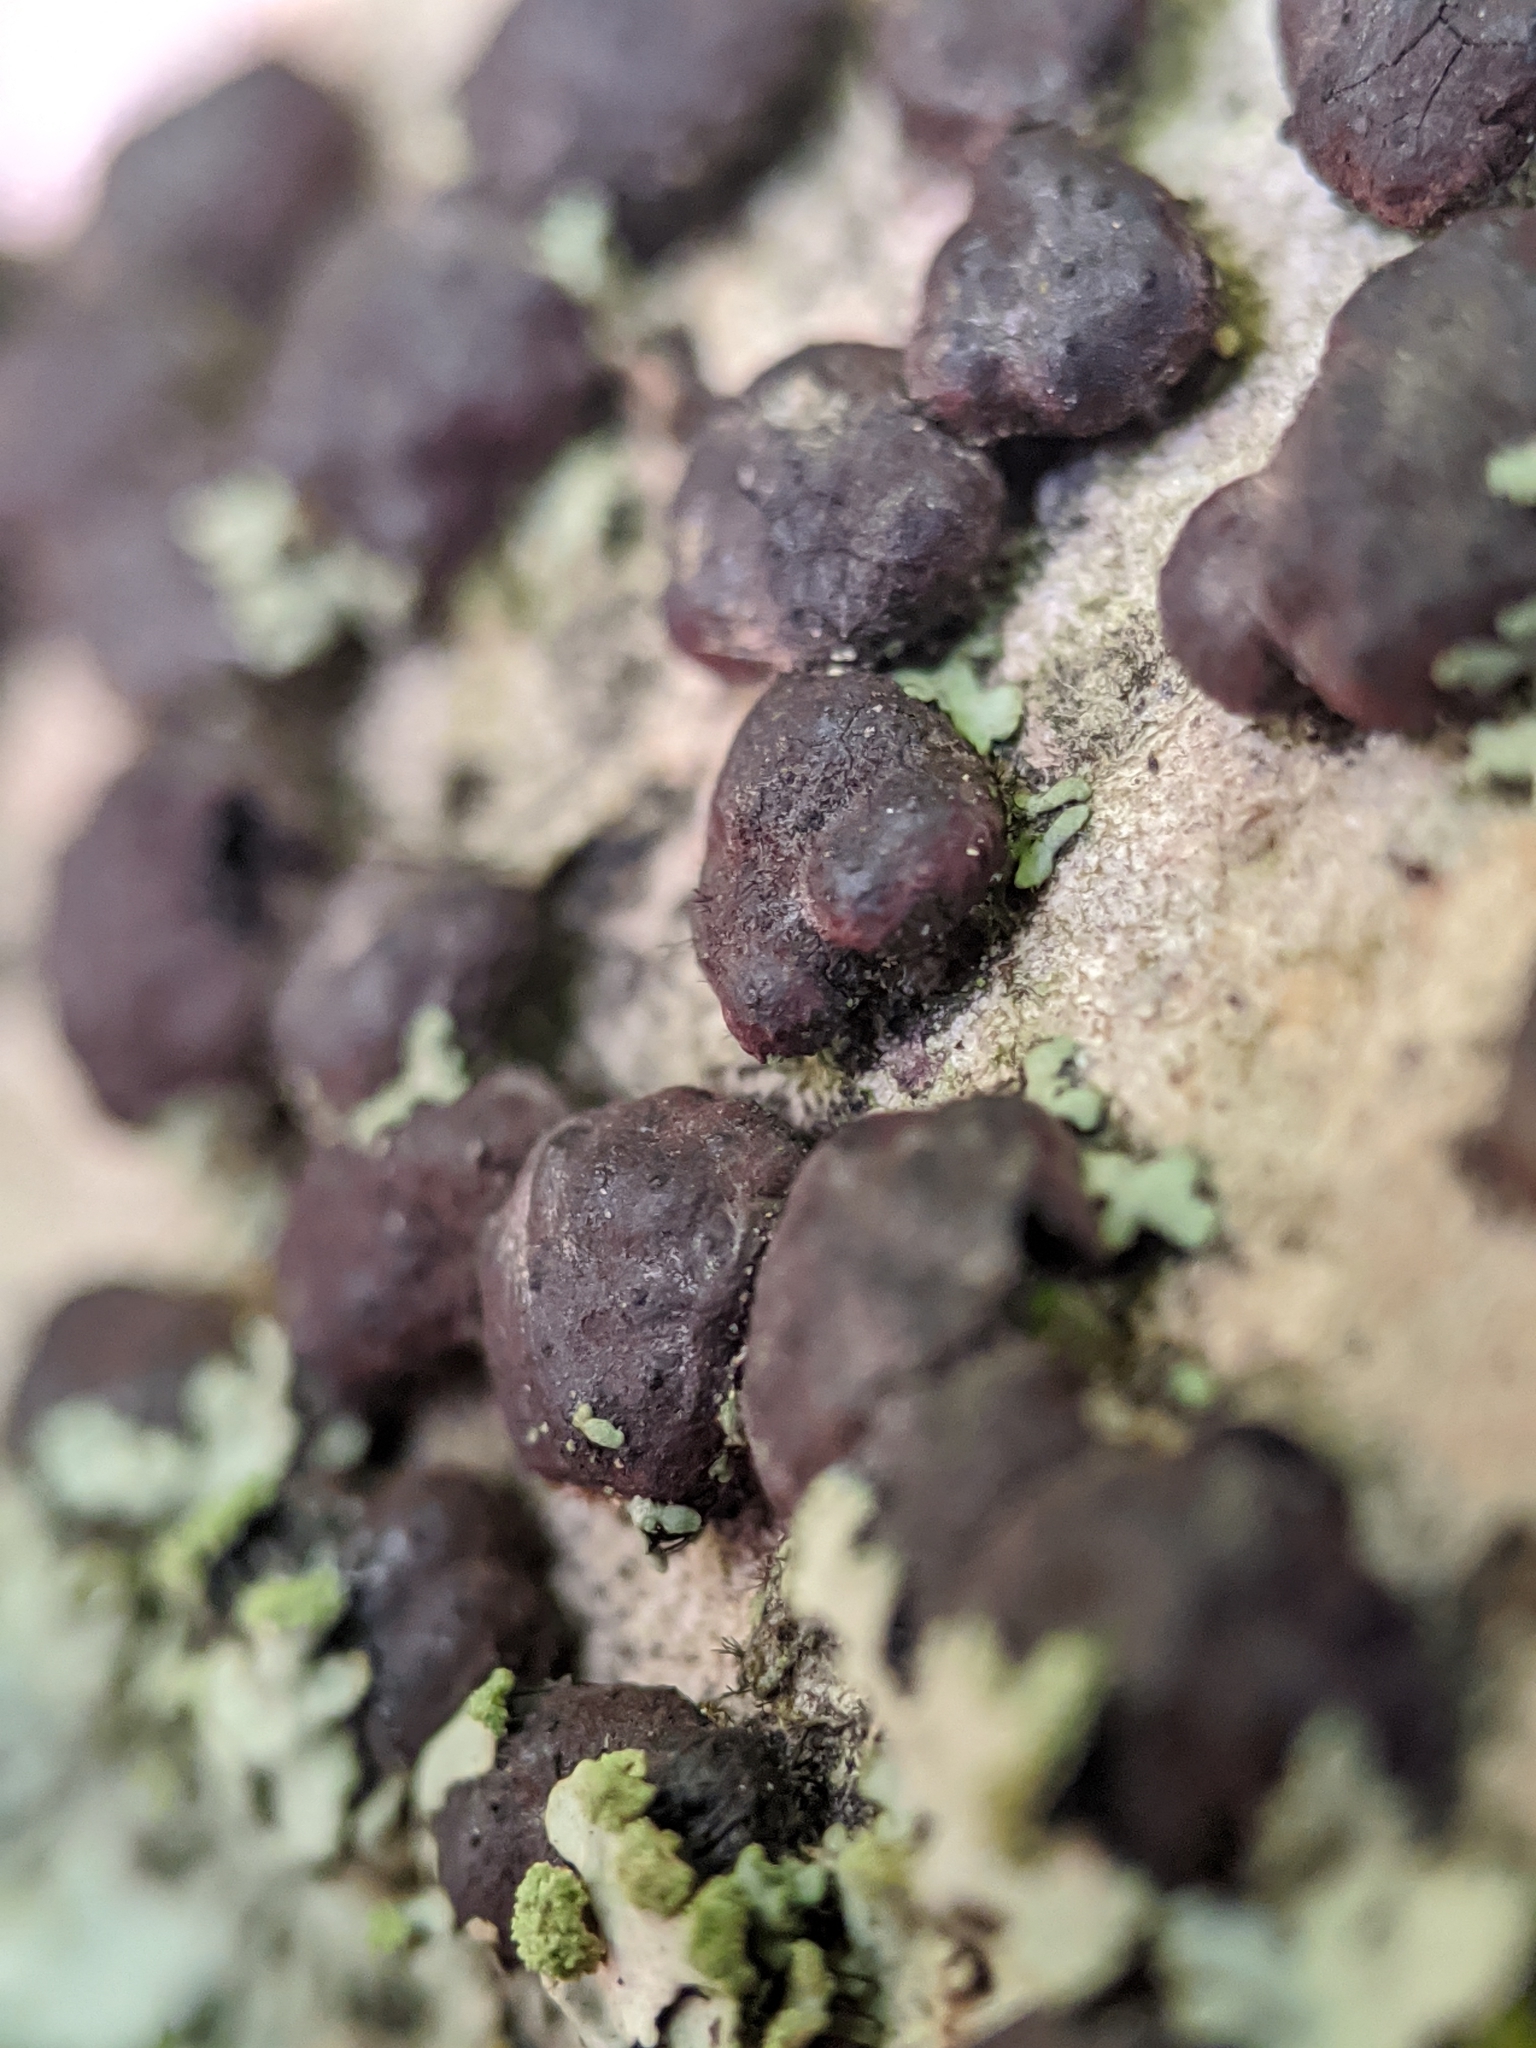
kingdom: Fungi
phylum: Ascomycota
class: Sordariomycetes
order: Xylariales
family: Hypoxylaceae
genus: Jackrogersella
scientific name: Jackrogersella cohaerens
